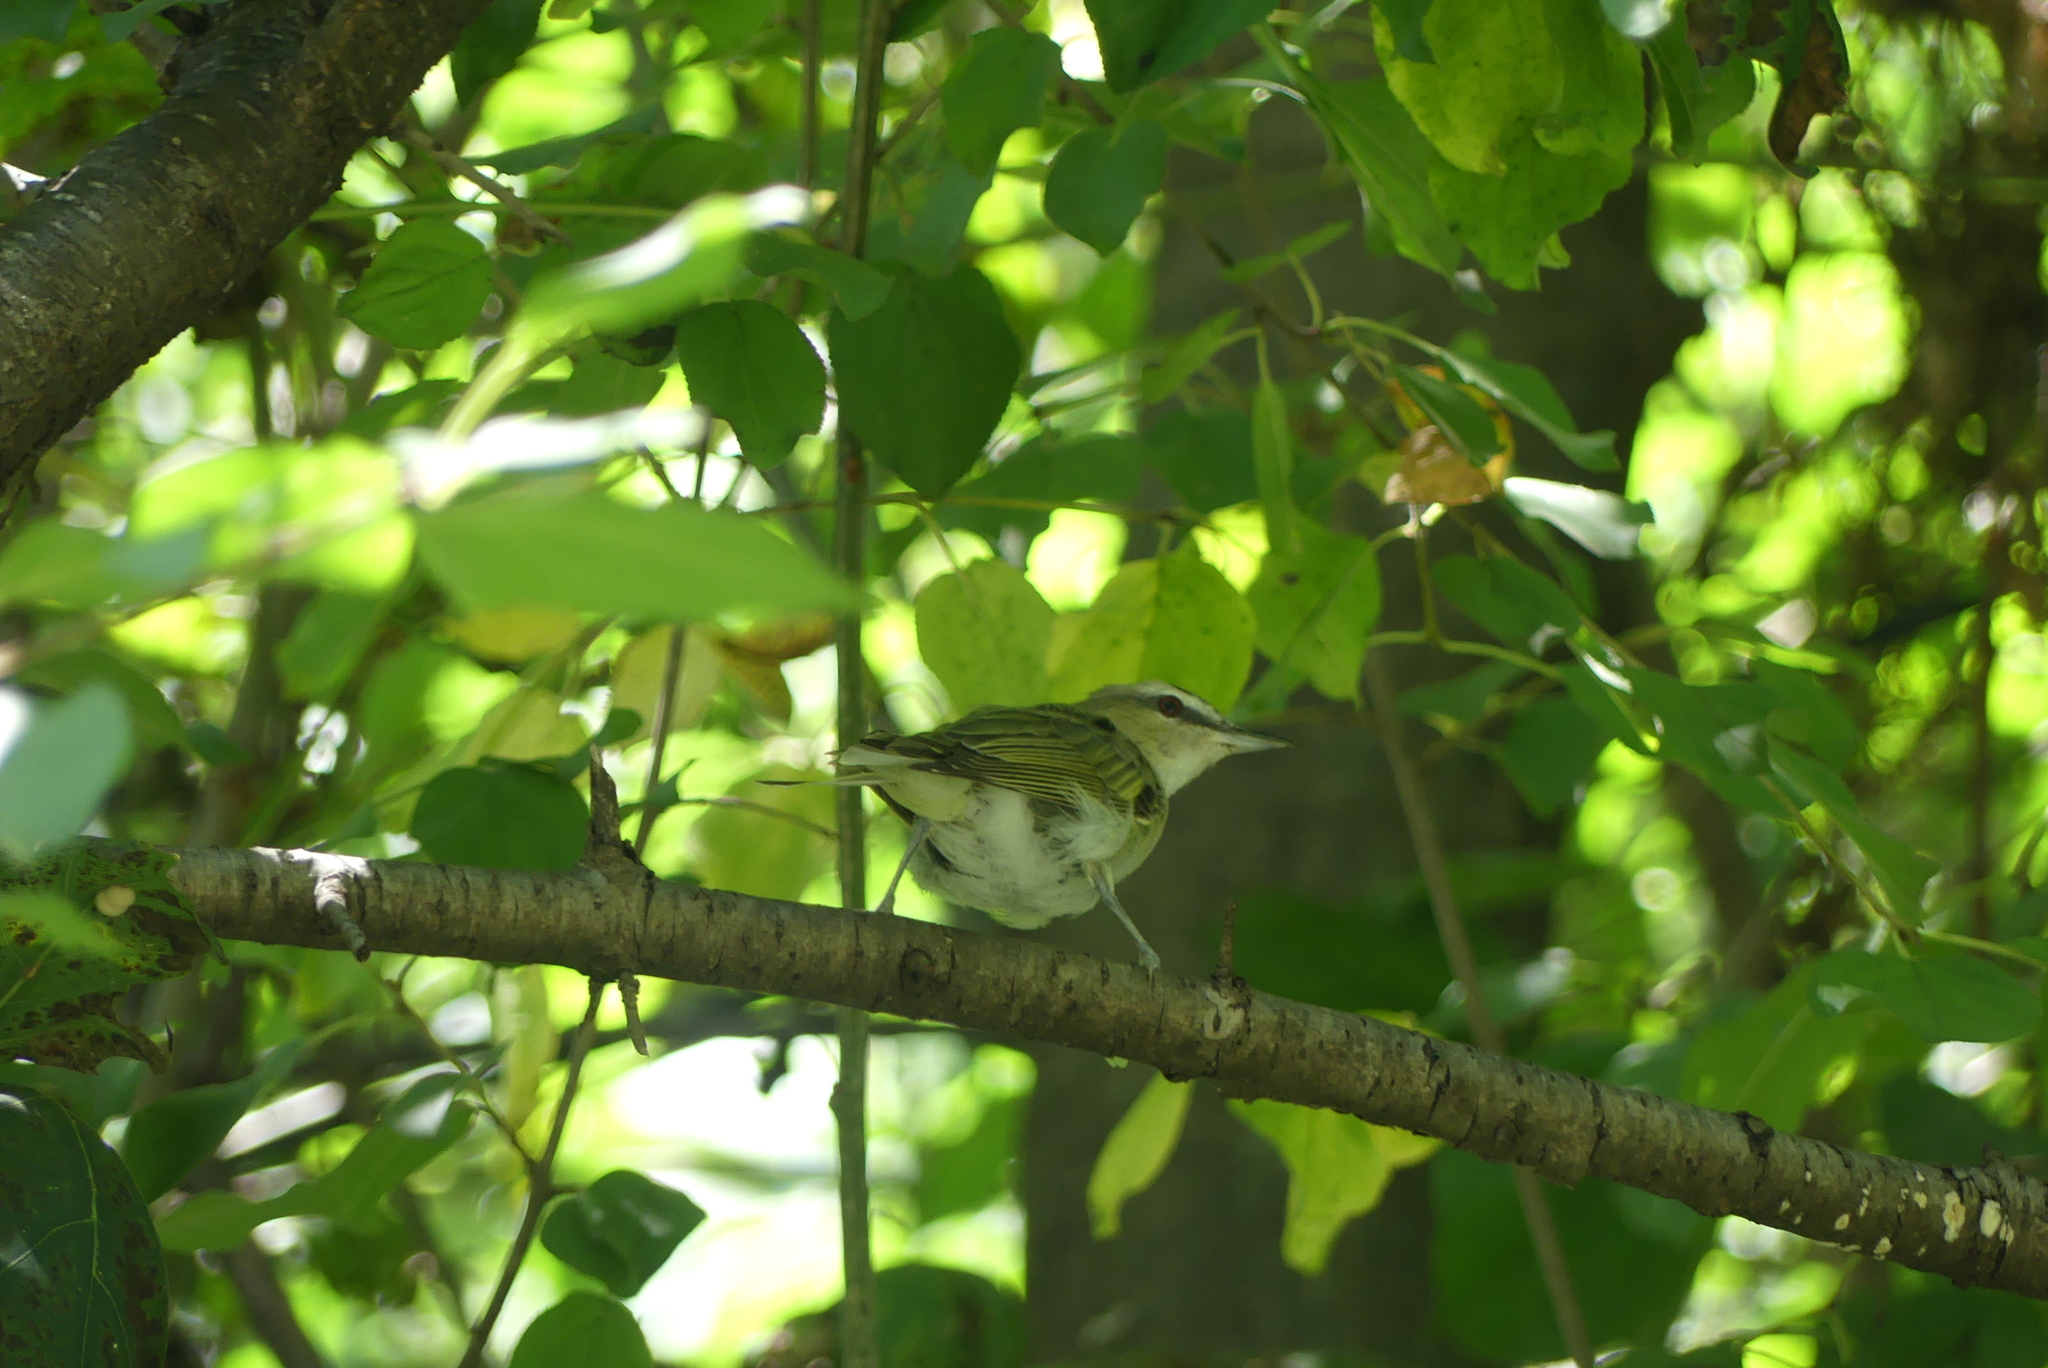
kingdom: Animalia
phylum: Chordata
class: Aves
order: Passeriformes
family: Vireonidae
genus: Vireo
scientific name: Vireo olivaceus
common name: Red-eyed vireo
